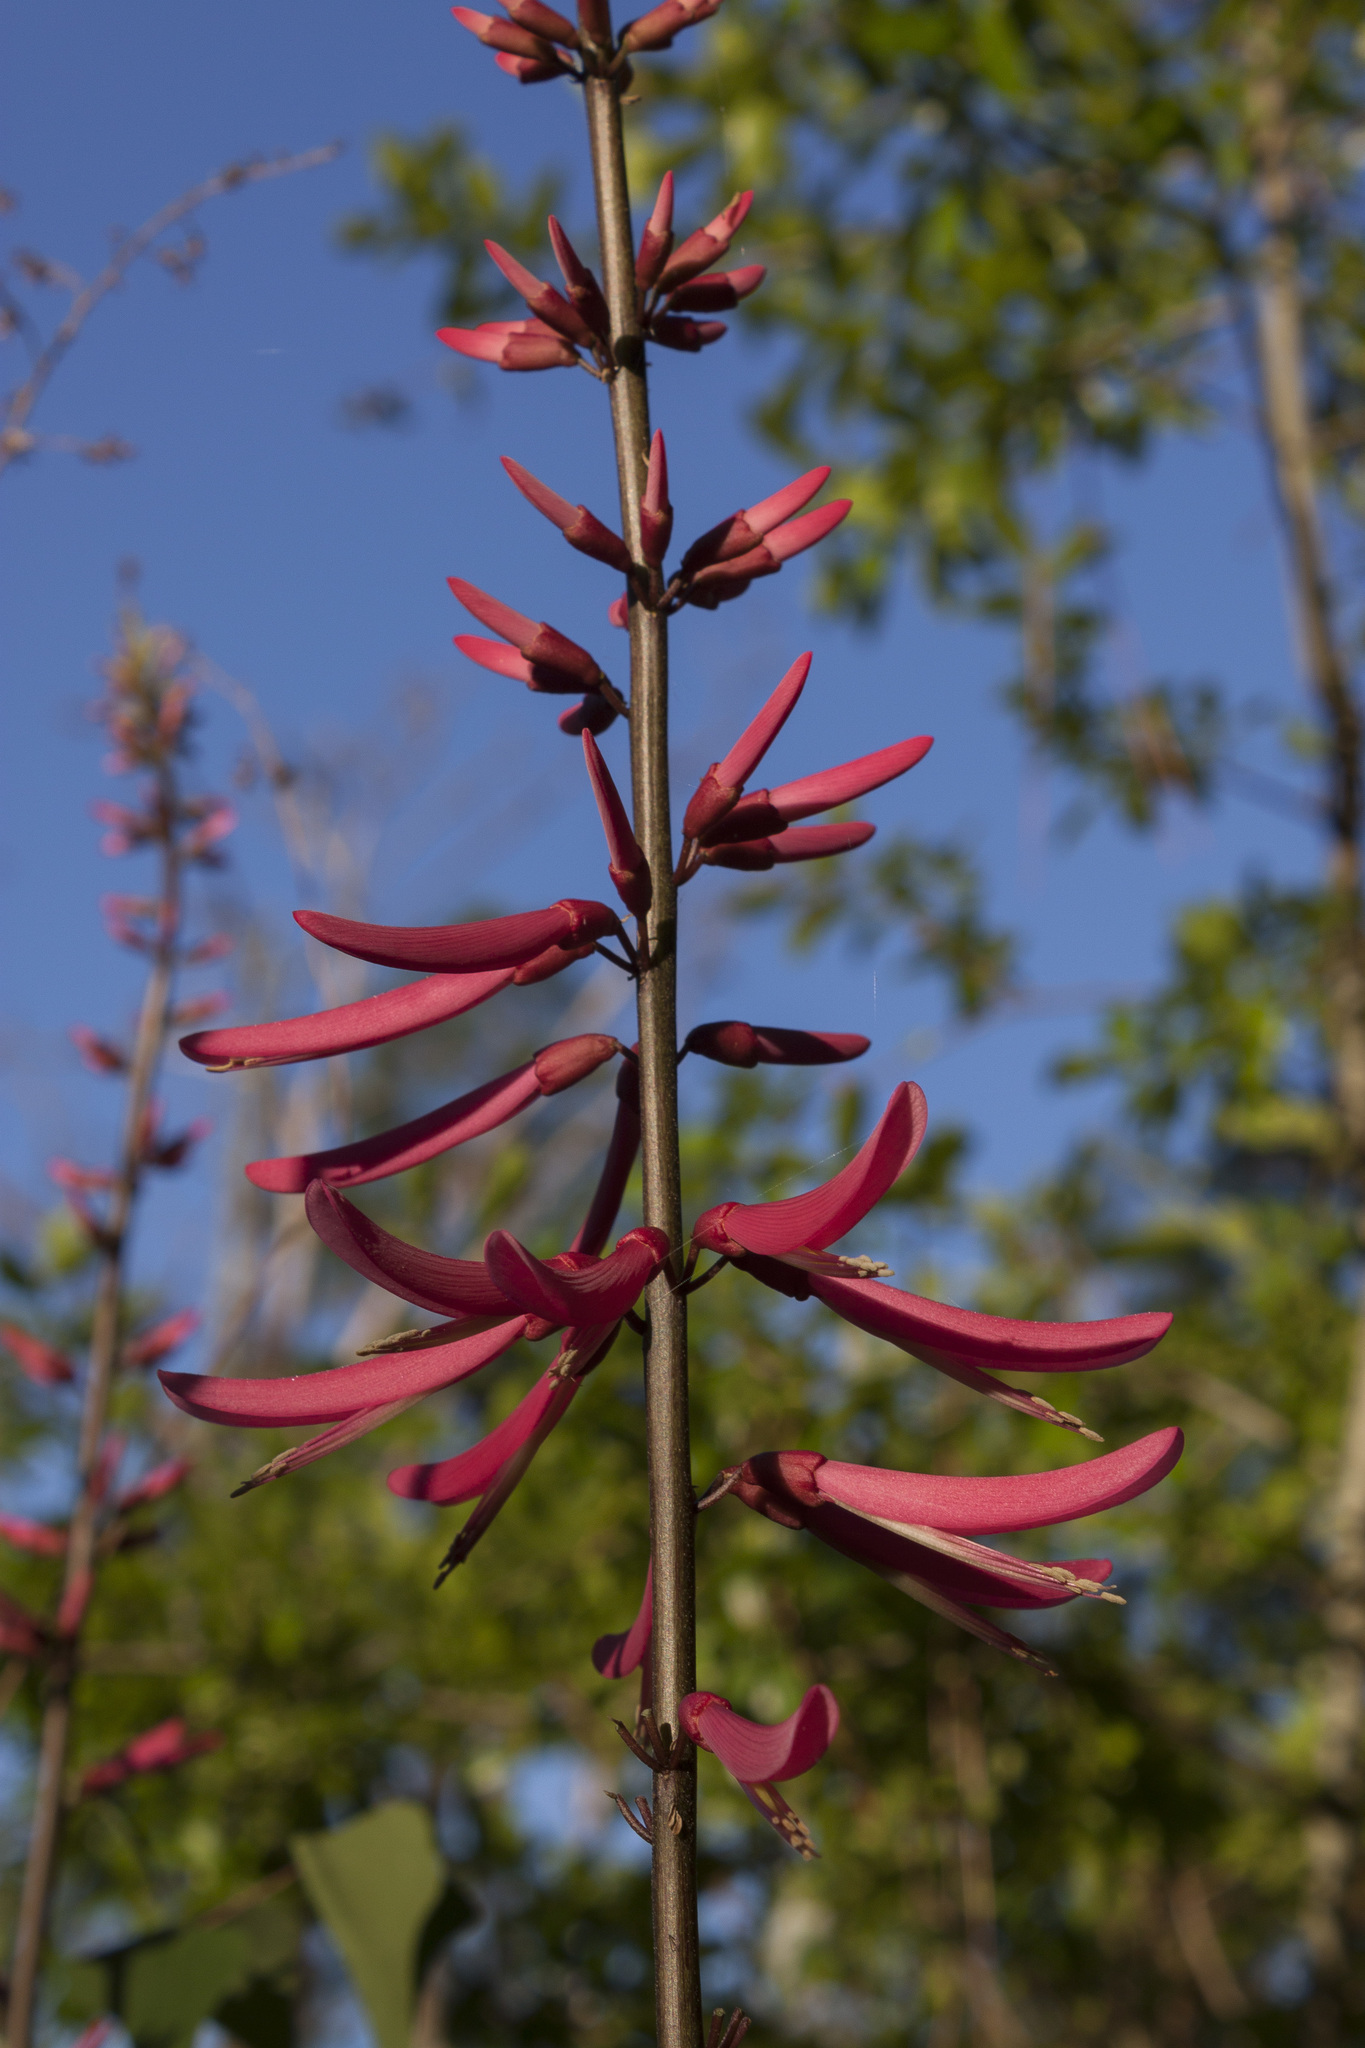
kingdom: Plantae
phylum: Tracheophyta
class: Magnoliopsida
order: Fabales
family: Fabaceae
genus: Erythrina
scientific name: Erythrina herbacea
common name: Coral-bean
